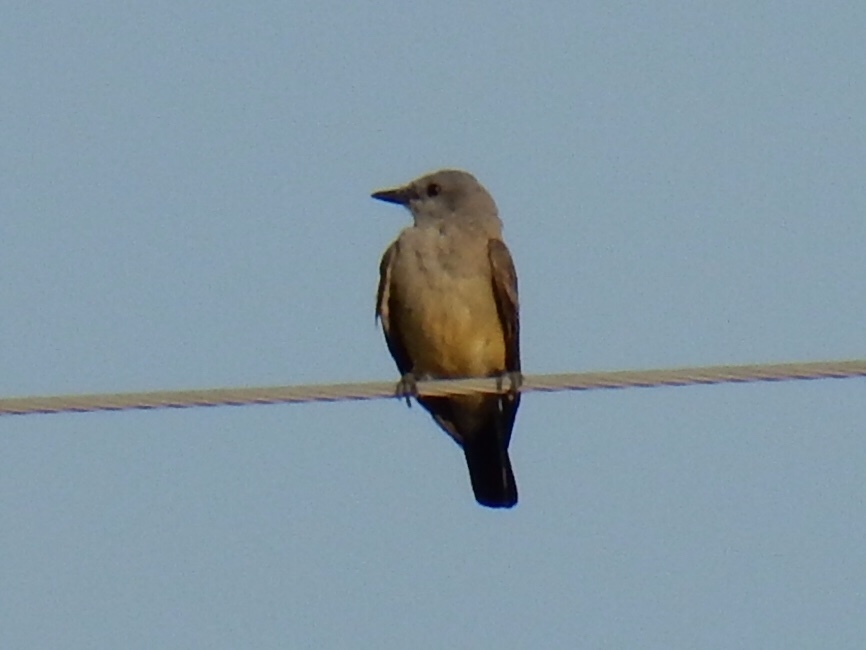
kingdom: Animalia
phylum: Chordata
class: Aves
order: Passeriformes
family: Tyrannidae
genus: Tyrannus
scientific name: Tyrannus verticalis
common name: Western kingbird
